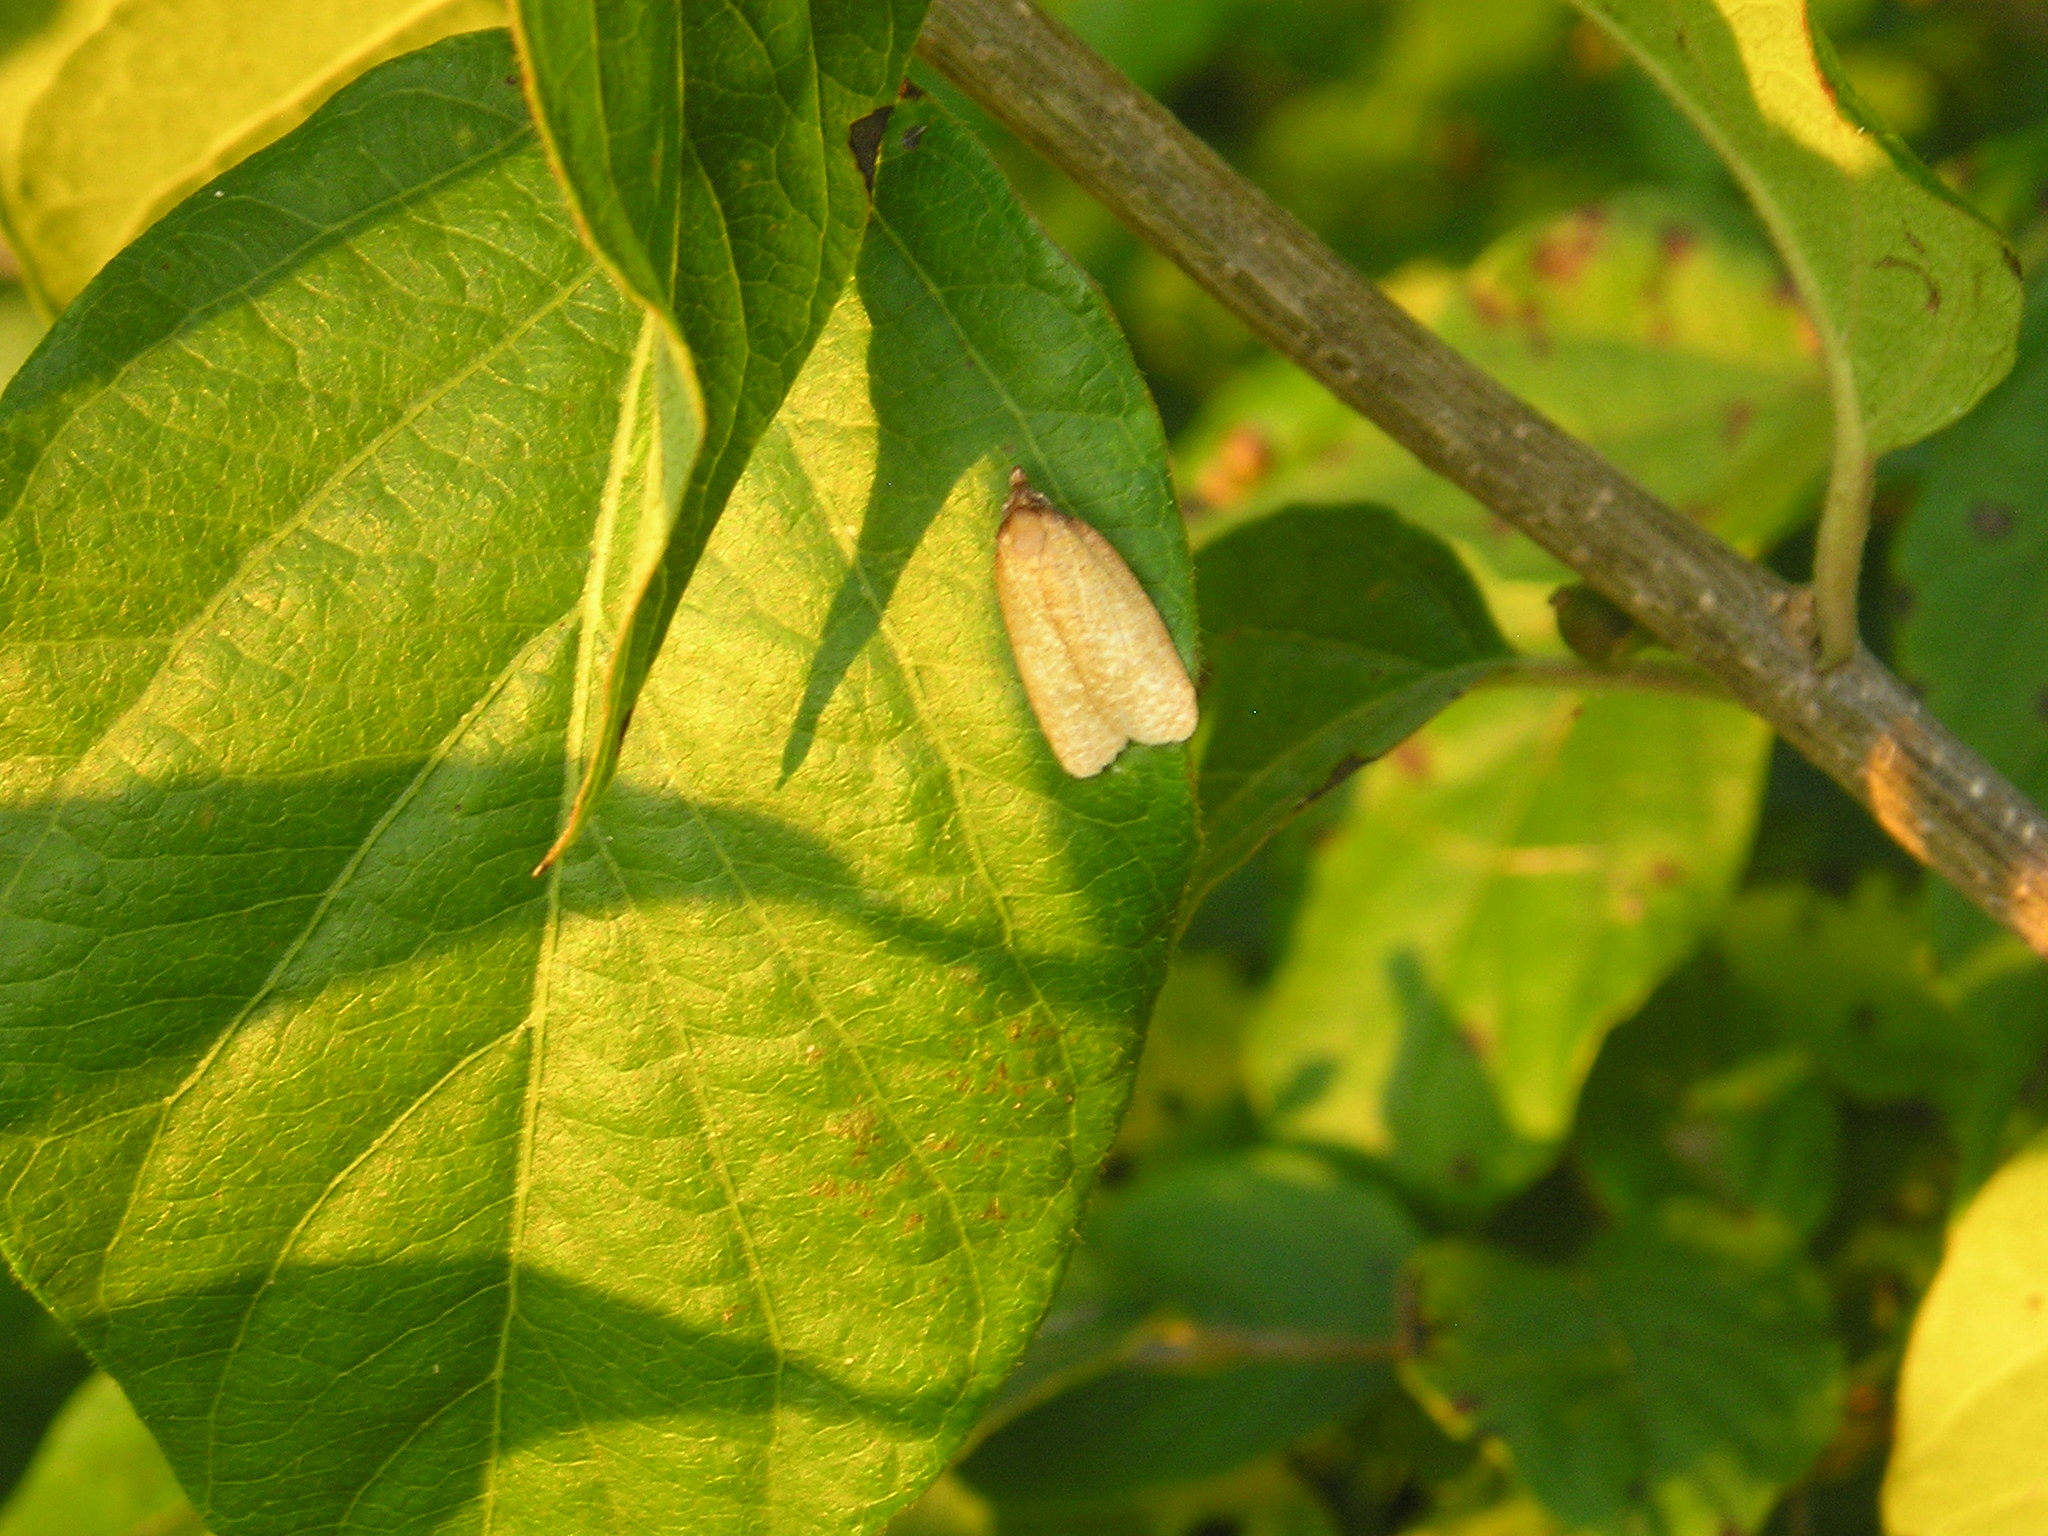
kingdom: Animalia
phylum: Arthropoda
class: Insecta
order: Lepidoptera
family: Tortricidae
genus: Sparganothis
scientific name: Sparganothis distincta
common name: Distinct sparganothis moth
